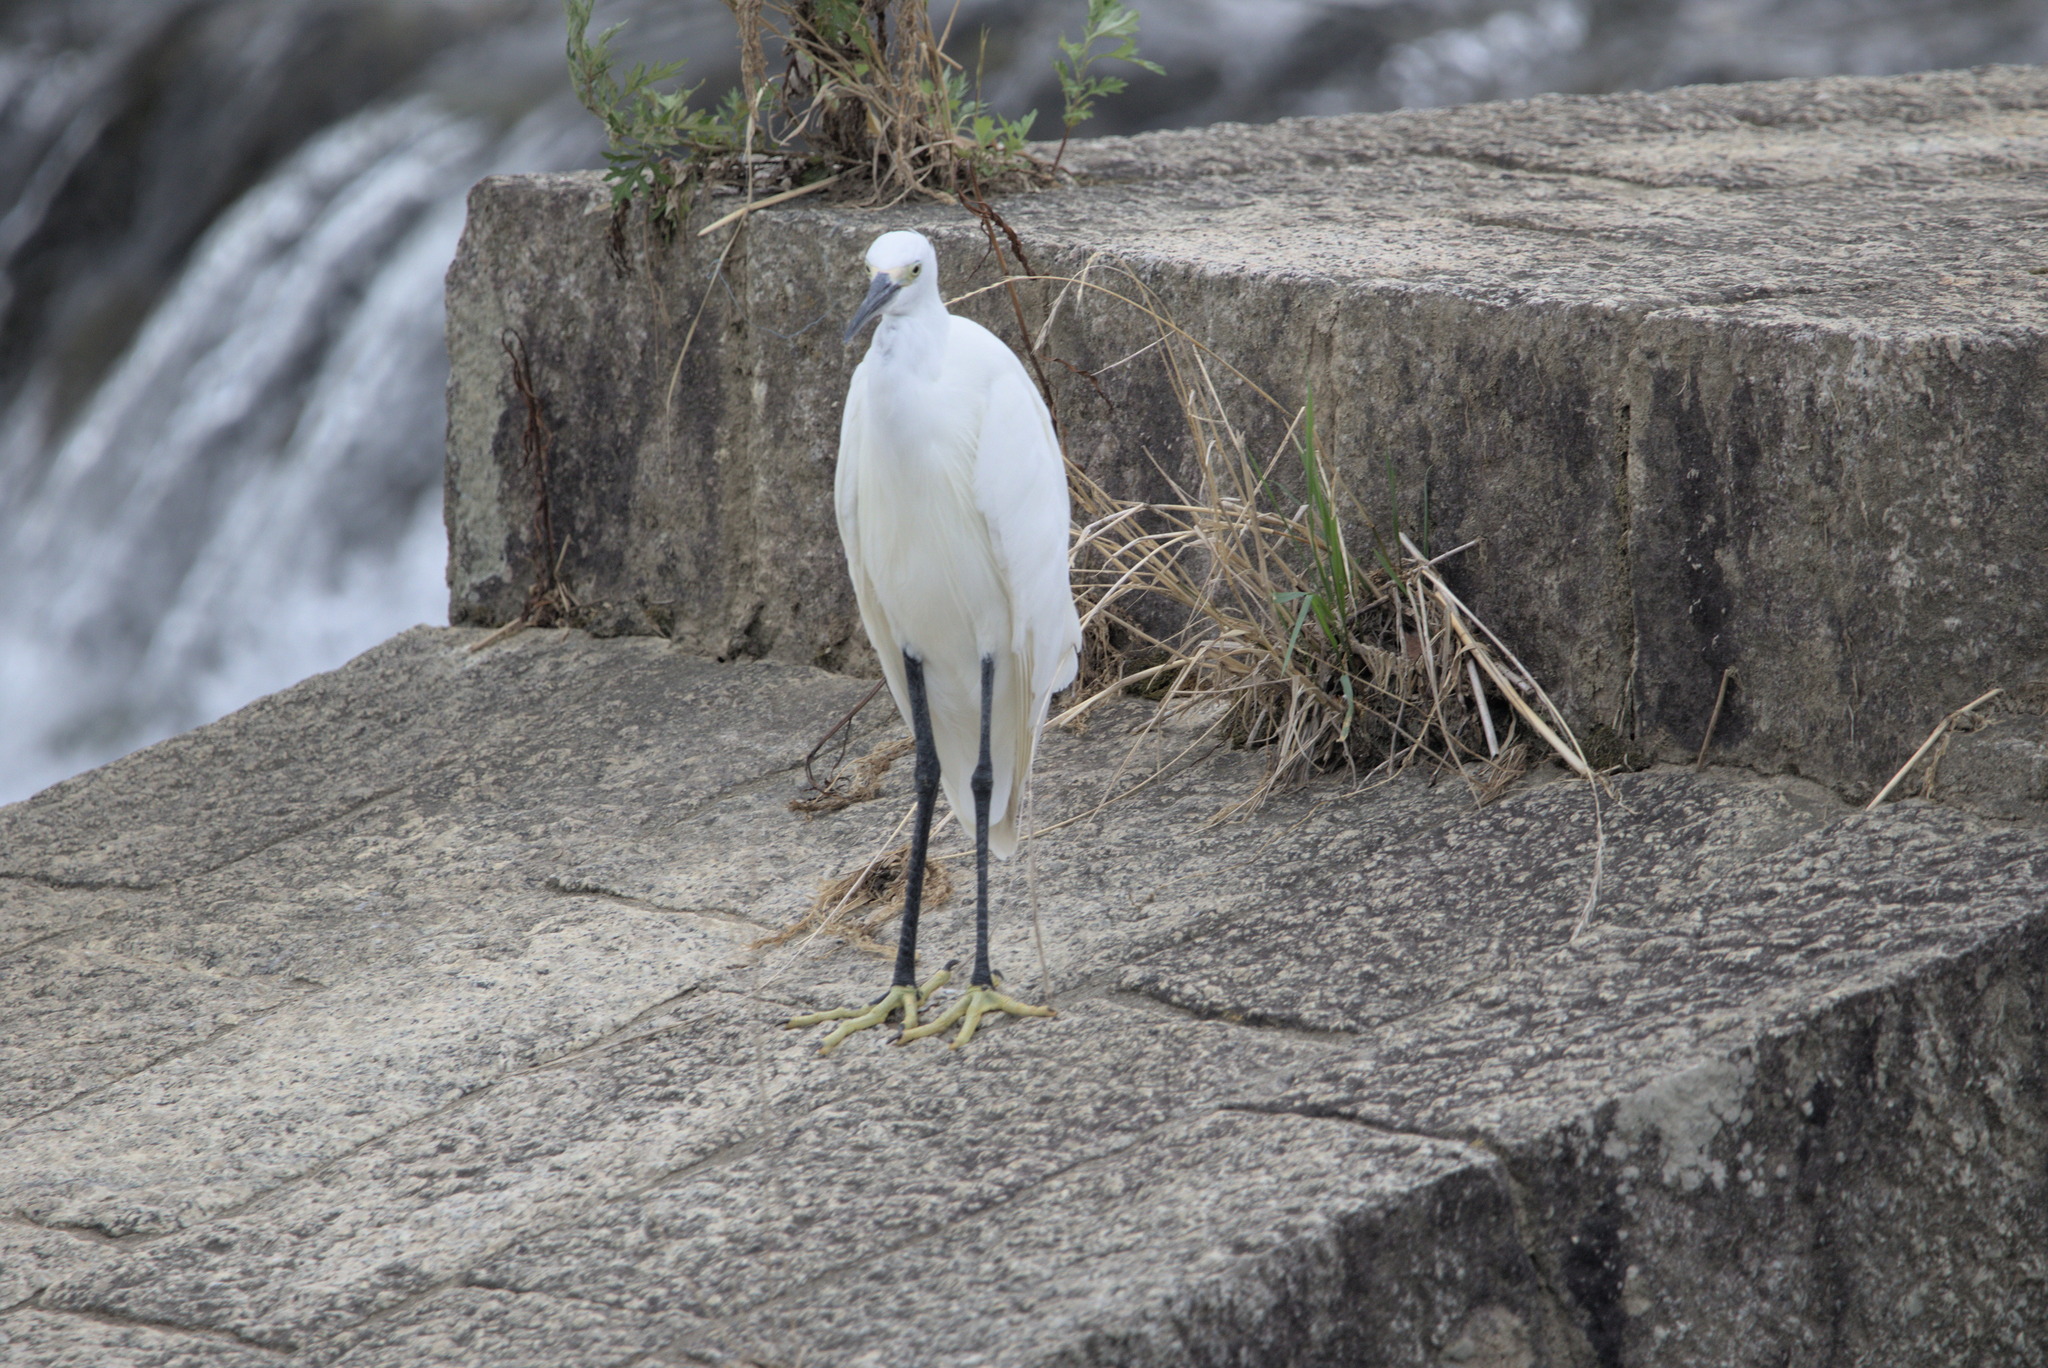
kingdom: Animalia
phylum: Chordata
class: Aves
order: Pelecaniformes
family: Ardeidae
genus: Egretta
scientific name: Egretta garzetta
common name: Little egret
